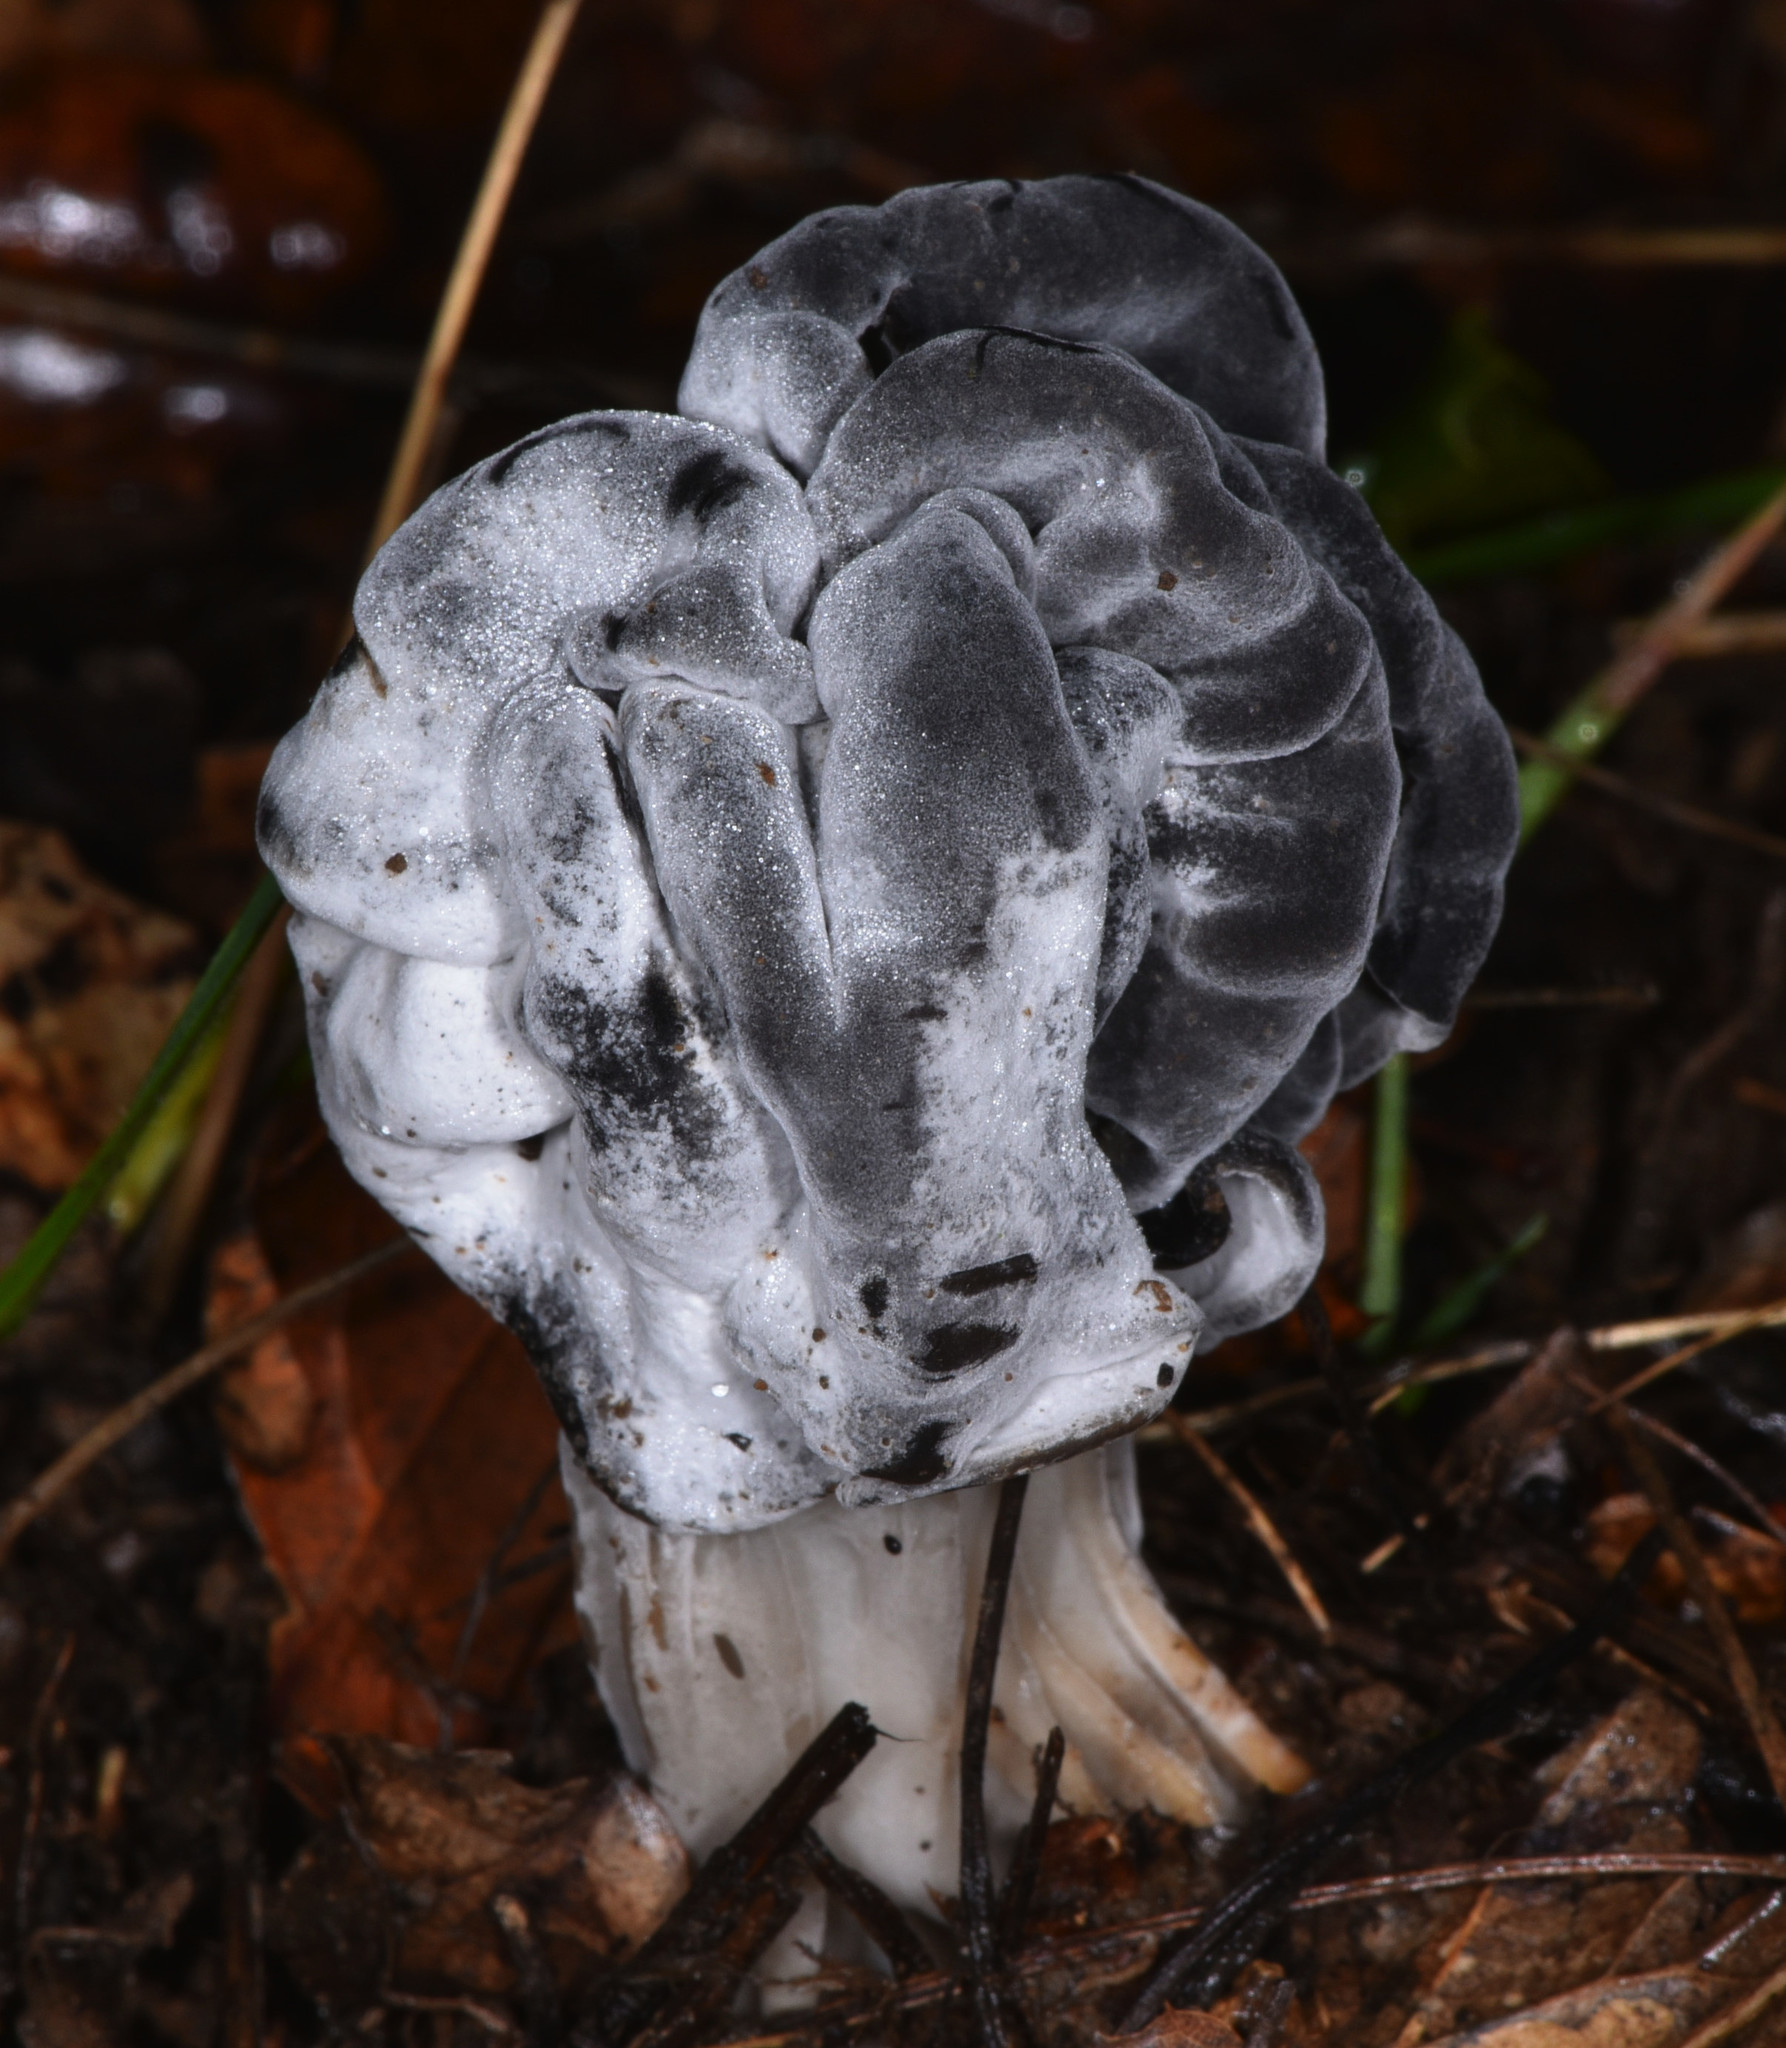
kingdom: Fungi
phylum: Ascomycota
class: Pezizomycetes
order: Pezizales
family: Helvellaceae
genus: Helvella
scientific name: Helvella dryophila
